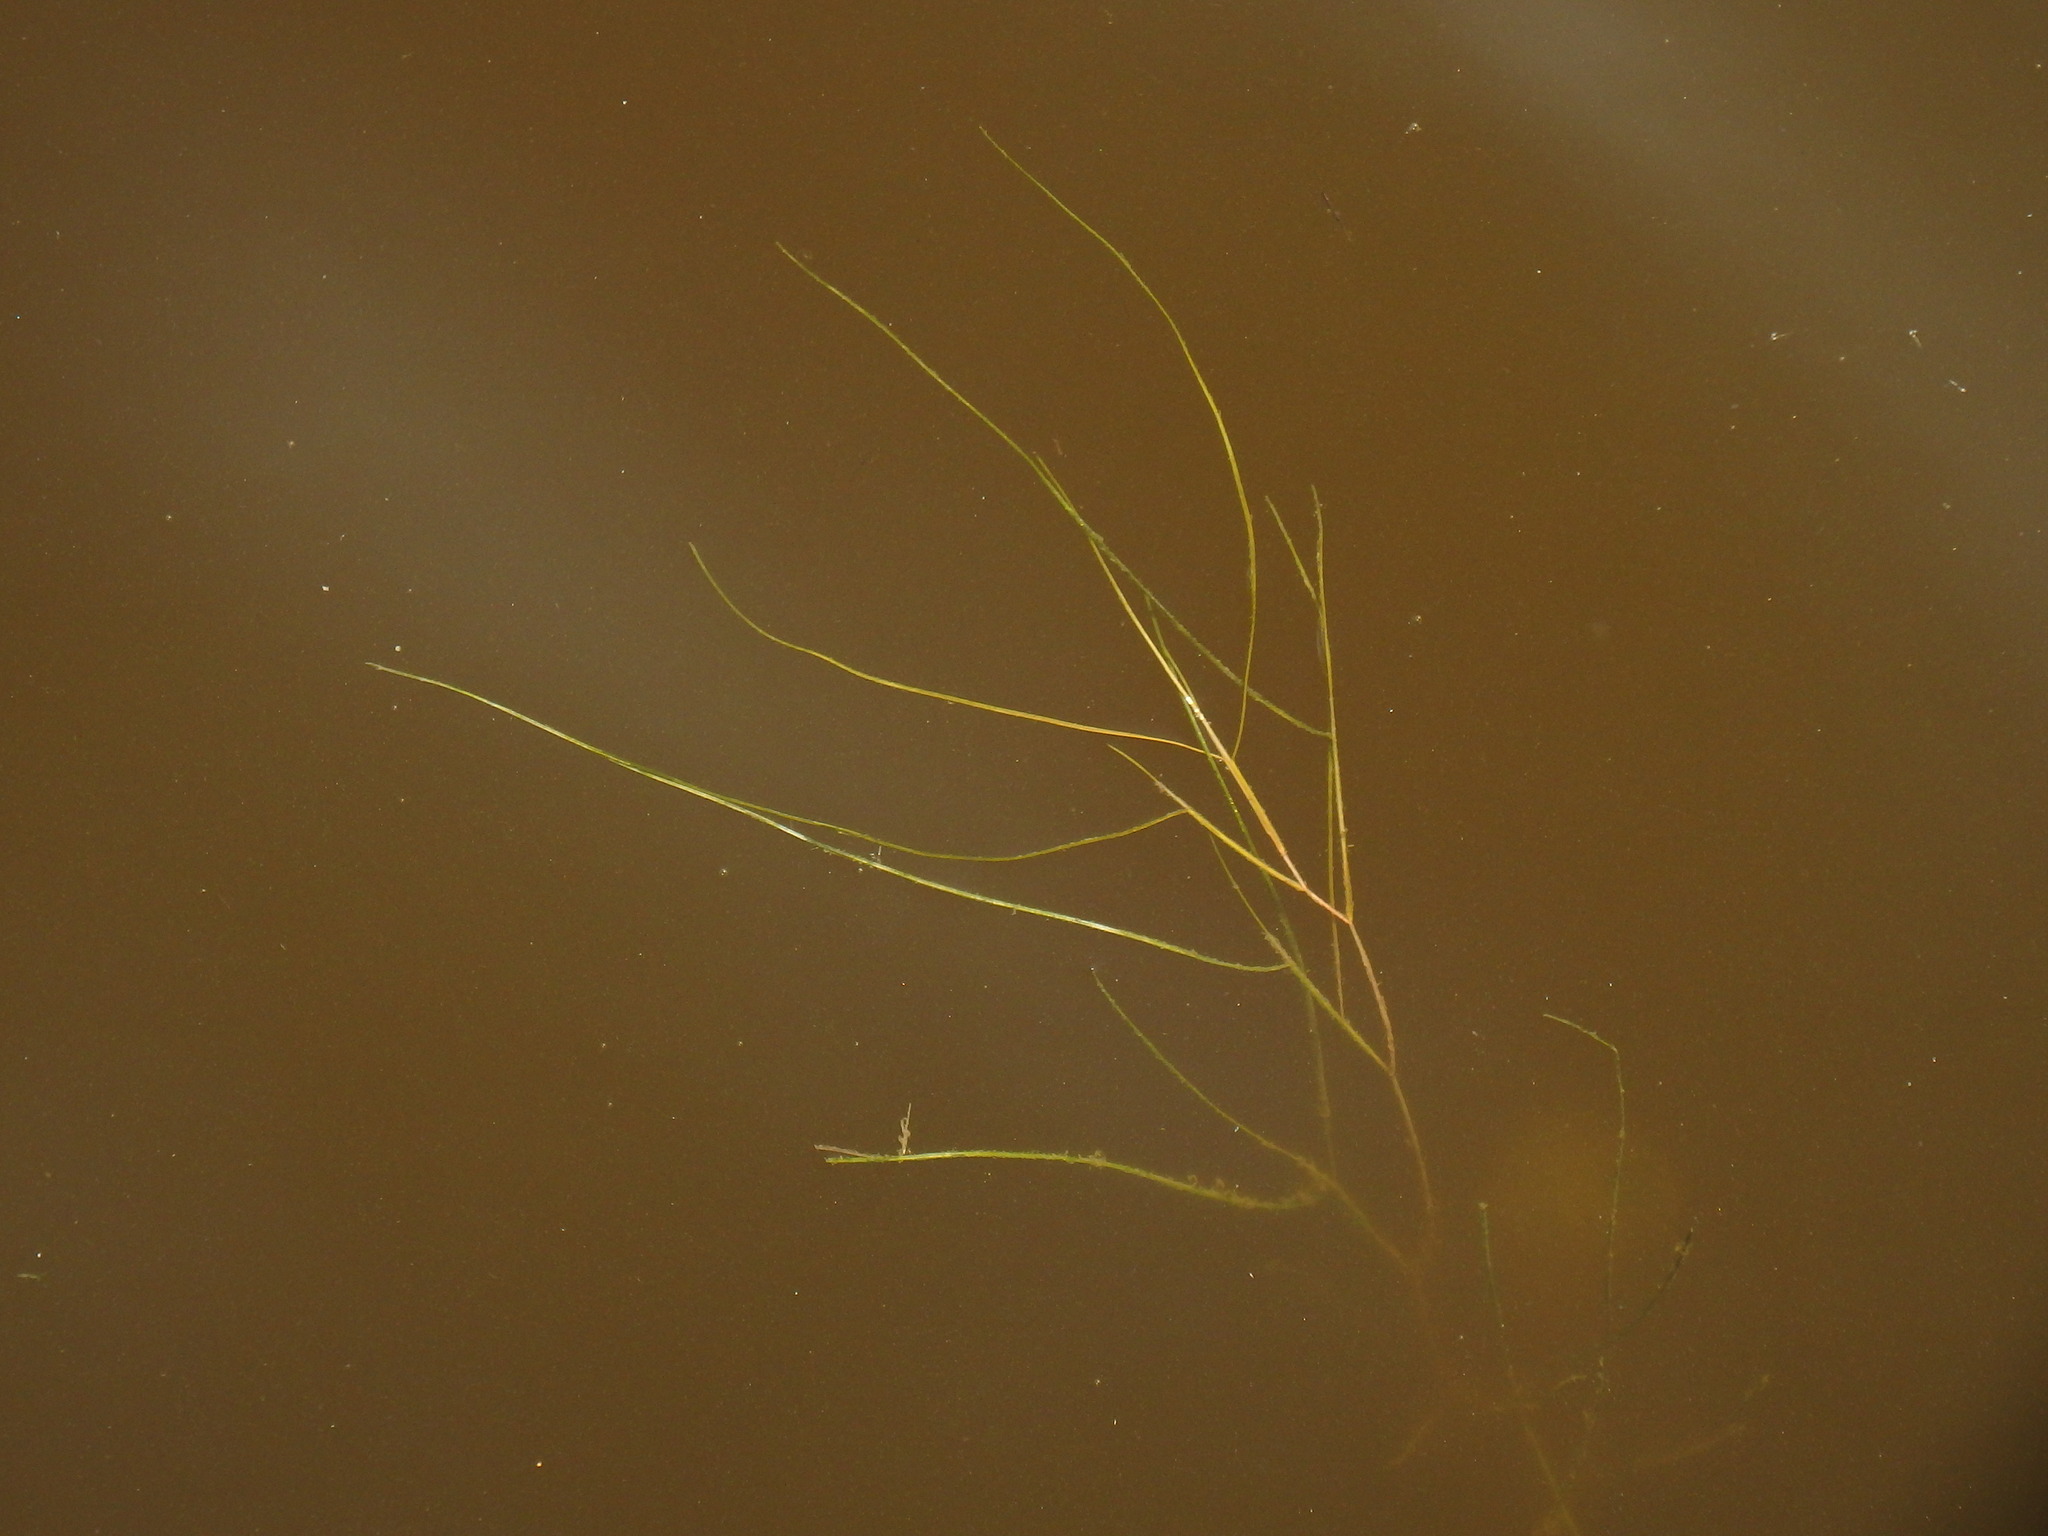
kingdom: Plantae
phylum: Tracheophyta
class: Liliopsida
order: Alismatales
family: Potamogetonaceae
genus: Stuckenia
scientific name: Stuckenia pectinata
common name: Sago pondweed
